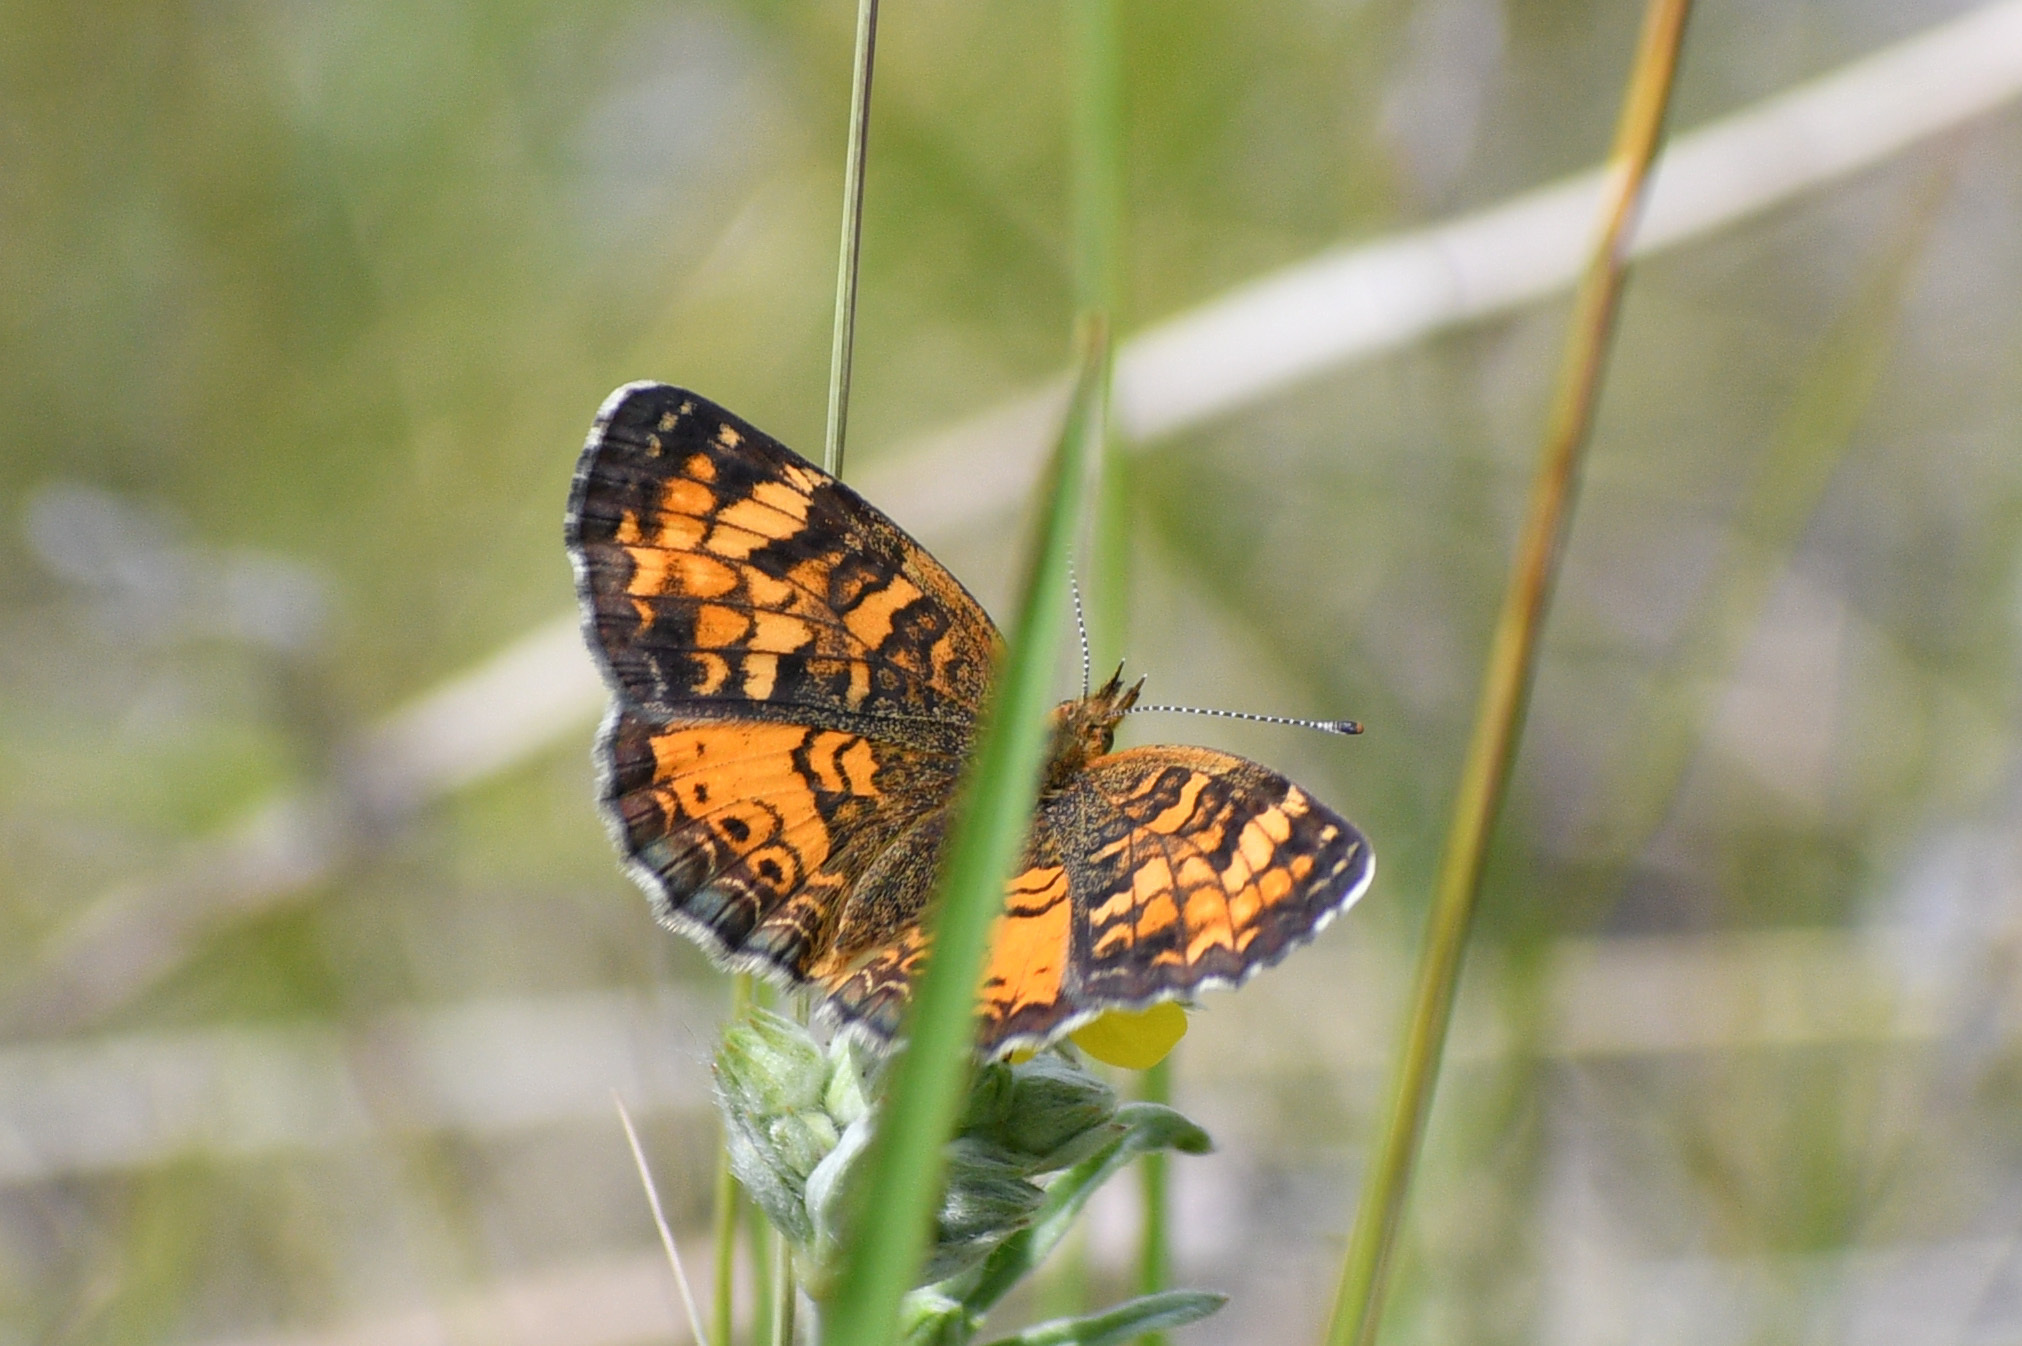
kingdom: Animalia
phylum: Arthropoda
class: Insecta
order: Lepidoptera
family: Nymphalidae
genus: Phyciodes
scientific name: Phyciodes tharos
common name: Pearl crescent
